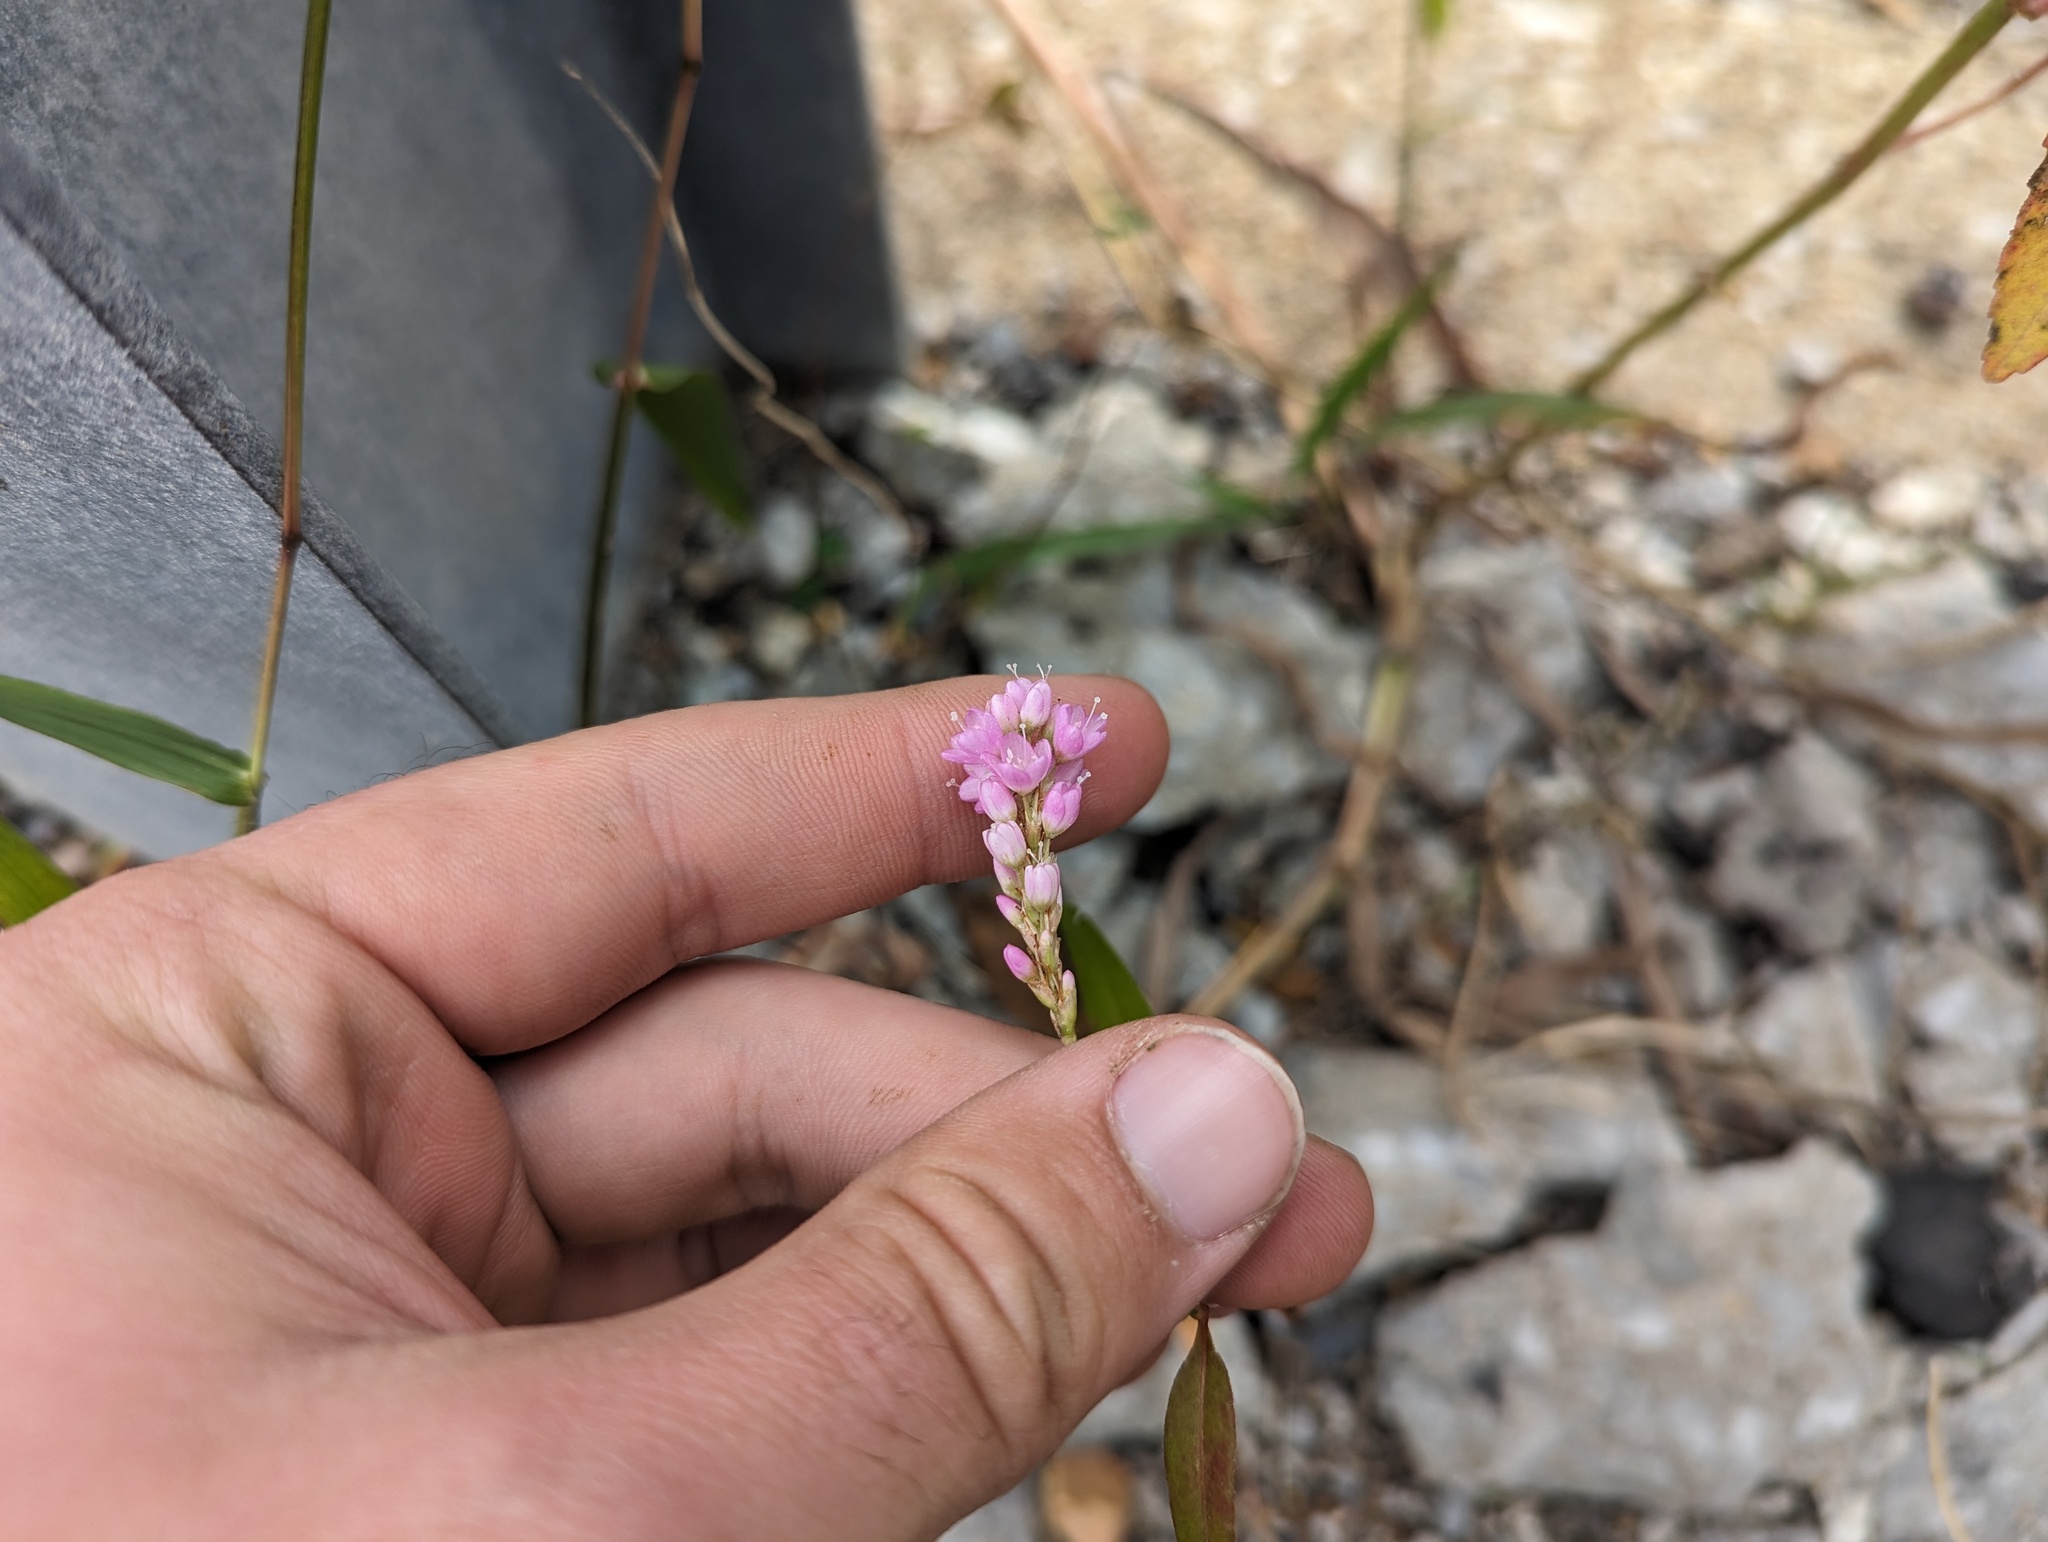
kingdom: Plantae
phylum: Tracheophyta
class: Magnoliopsida
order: Caryophyllales
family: Polygonaceae
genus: Persicaria
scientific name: Persicaria bicornis
